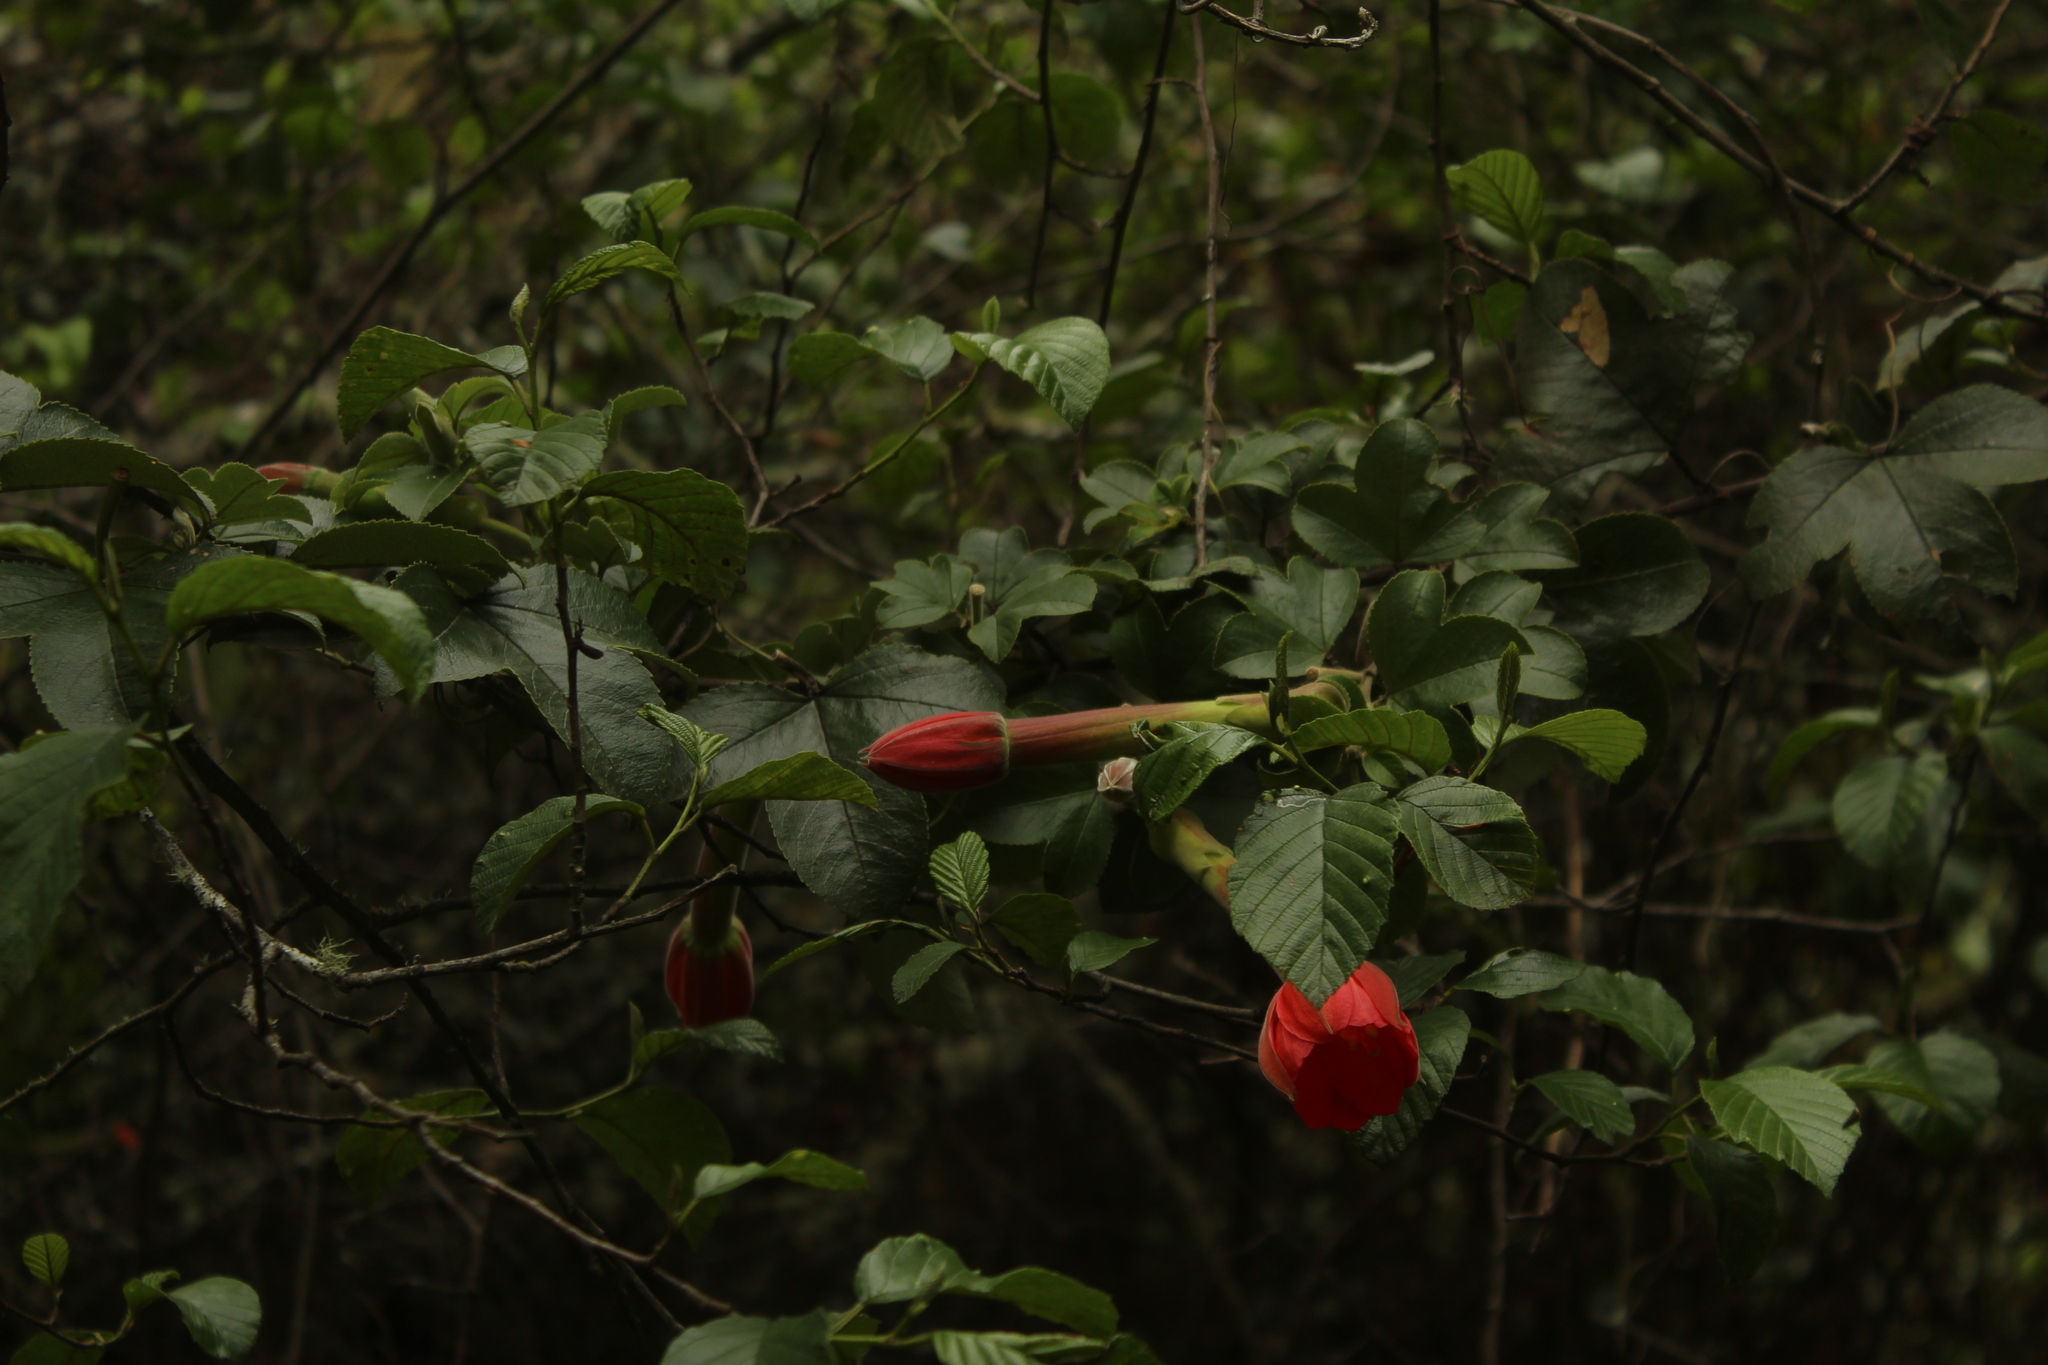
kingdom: Plantae
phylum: Tracheophyta
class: Magnoliopsida
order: Malpighiales
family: Passifloraceae
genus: Passiflora
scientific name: Passiflora mixta
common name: Passion flower
